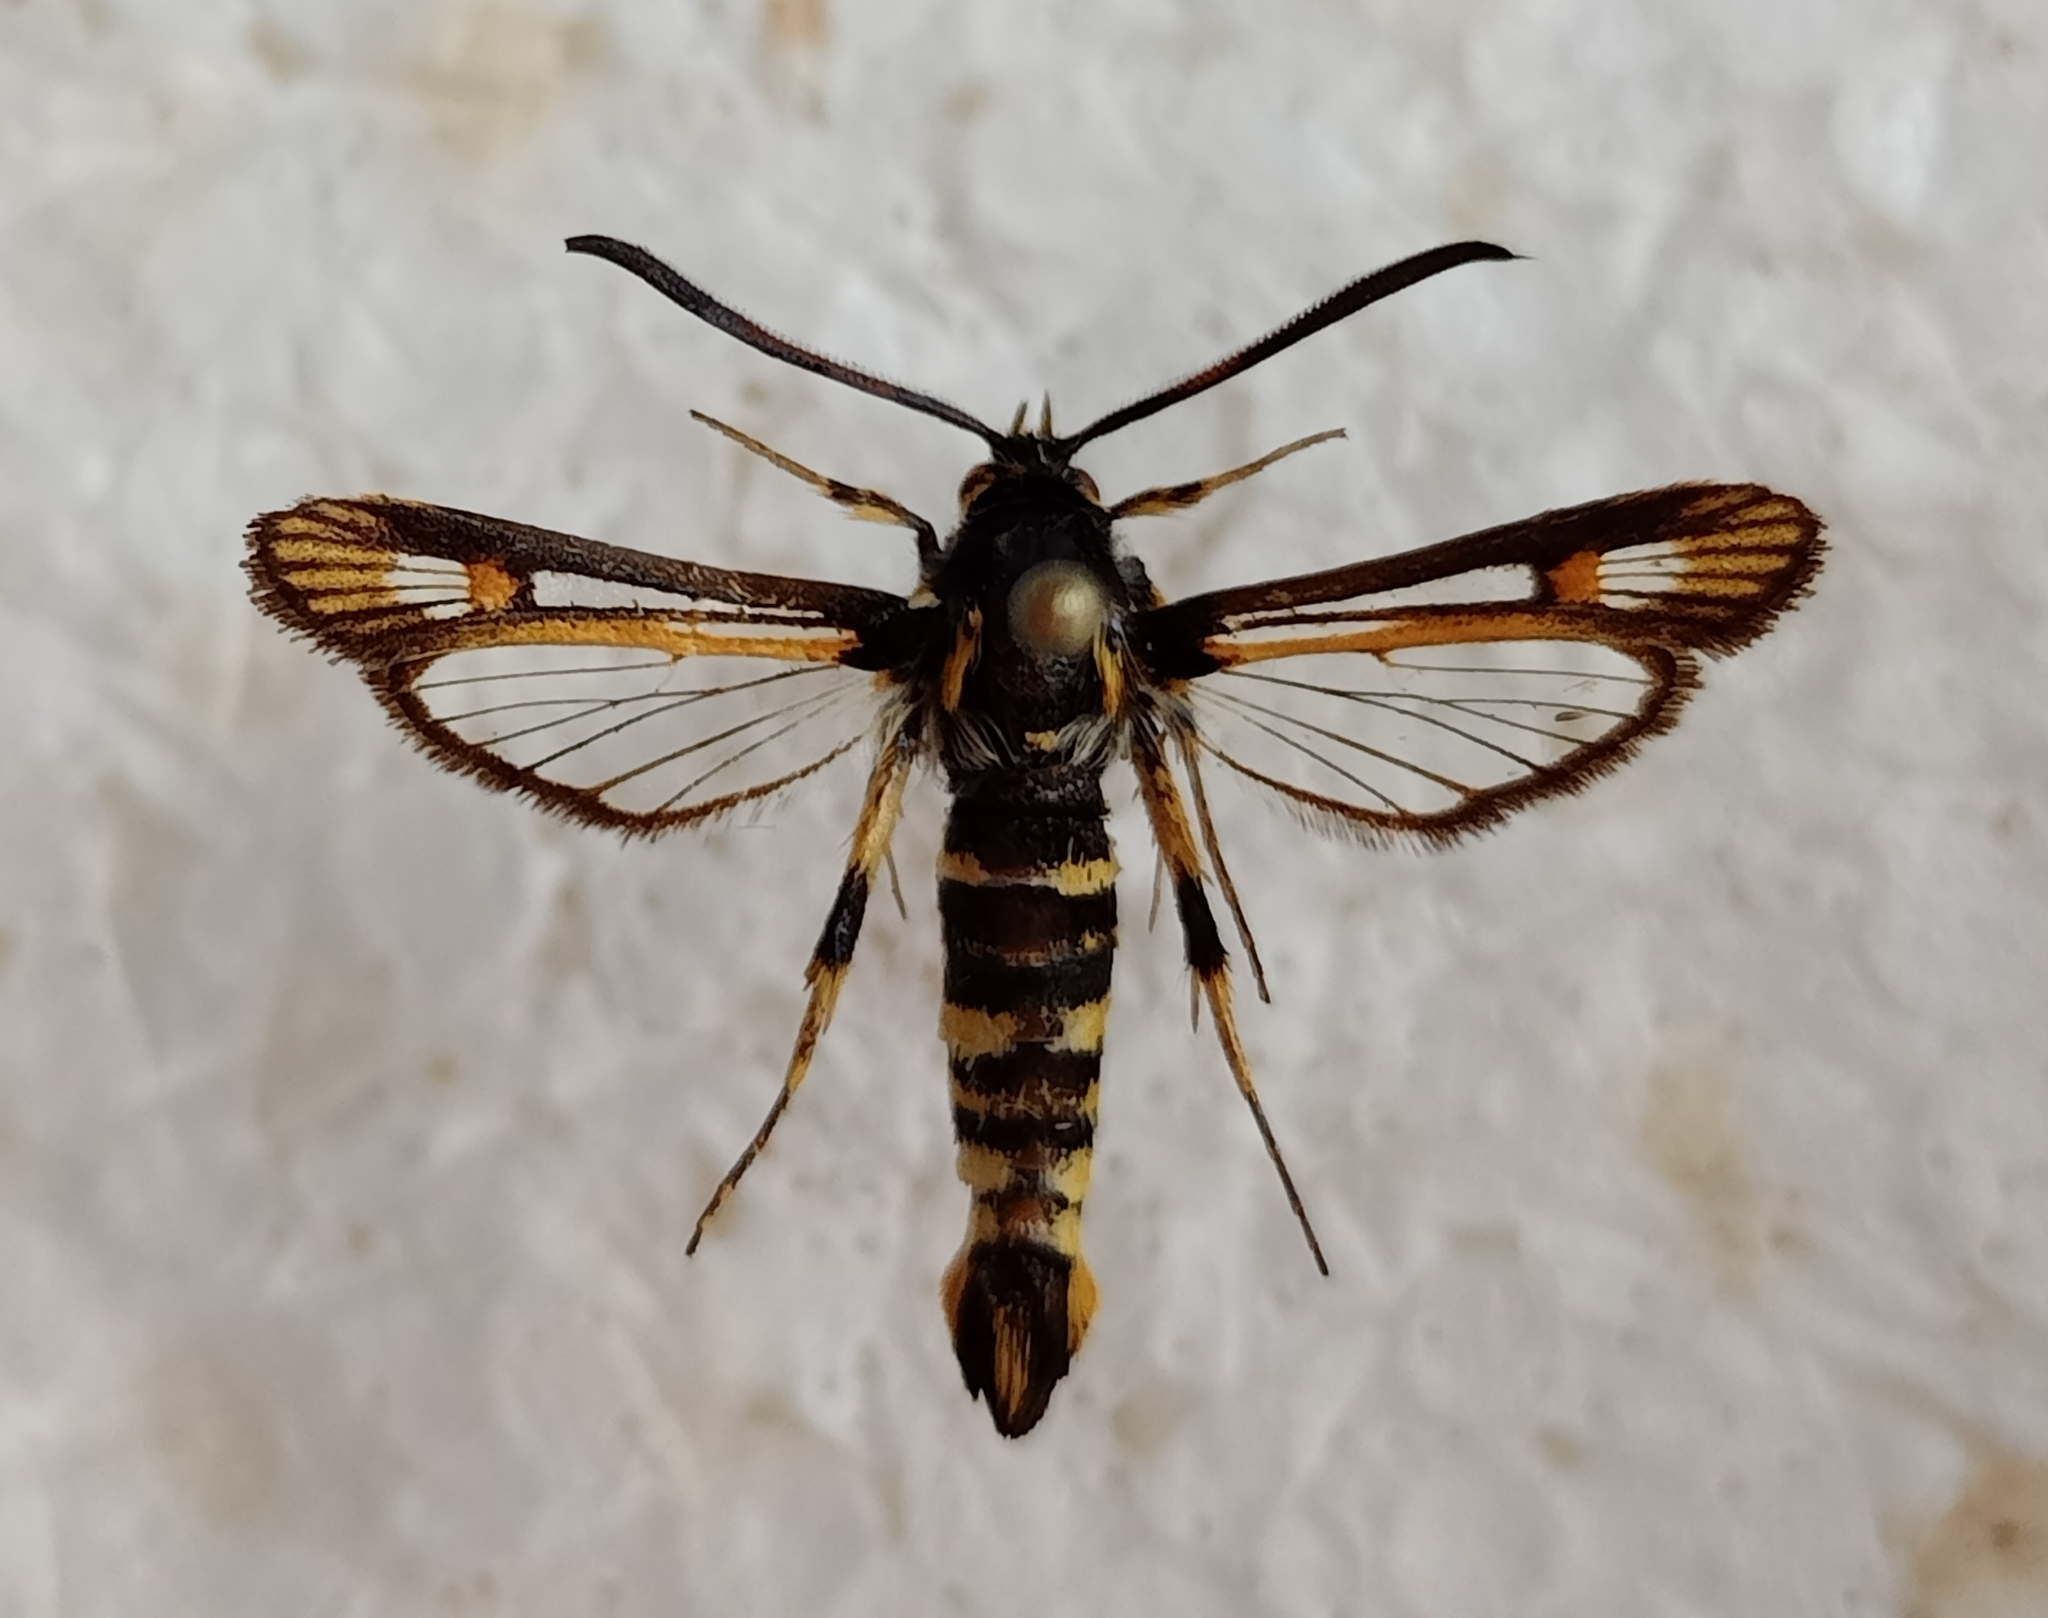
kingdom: Animalia
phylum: Arthropoda
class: Insecta
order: Lepidoptera
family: Sesiidae
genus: Bembecia
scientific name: Bembecia uroceriformis
